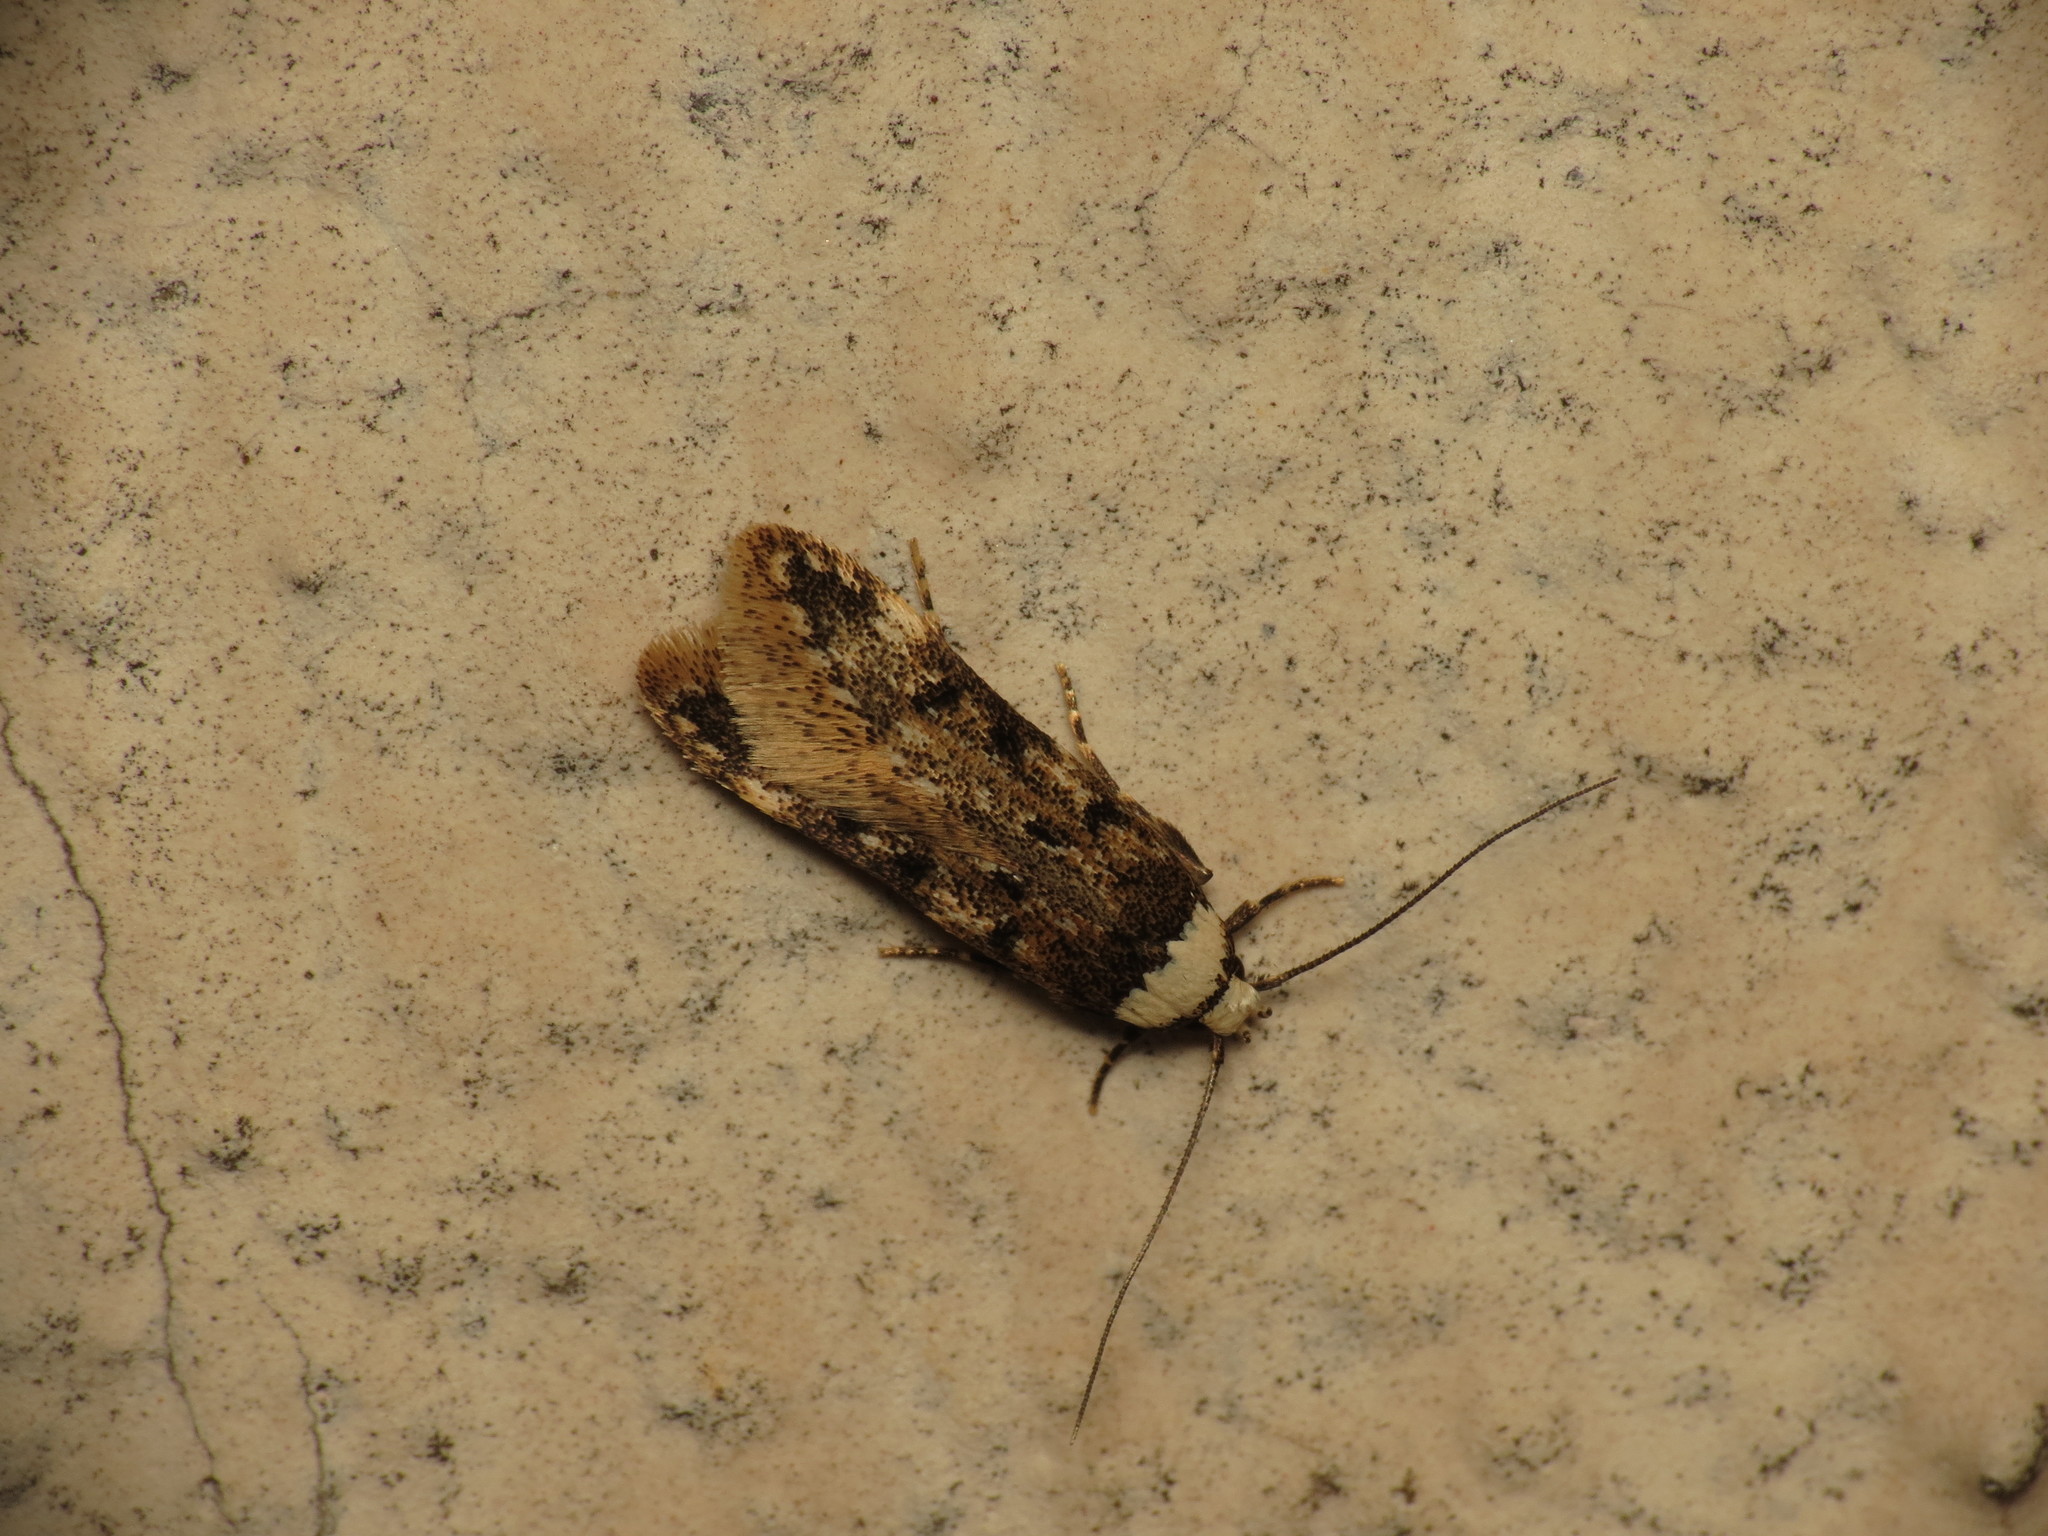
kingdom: Animalia
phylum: Arthropoda
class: Insecta
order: Lepidoptera
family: Oecophoridae
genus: Endrosis
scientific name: Endrosis sarcitrella
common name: White-shouldered house moth
